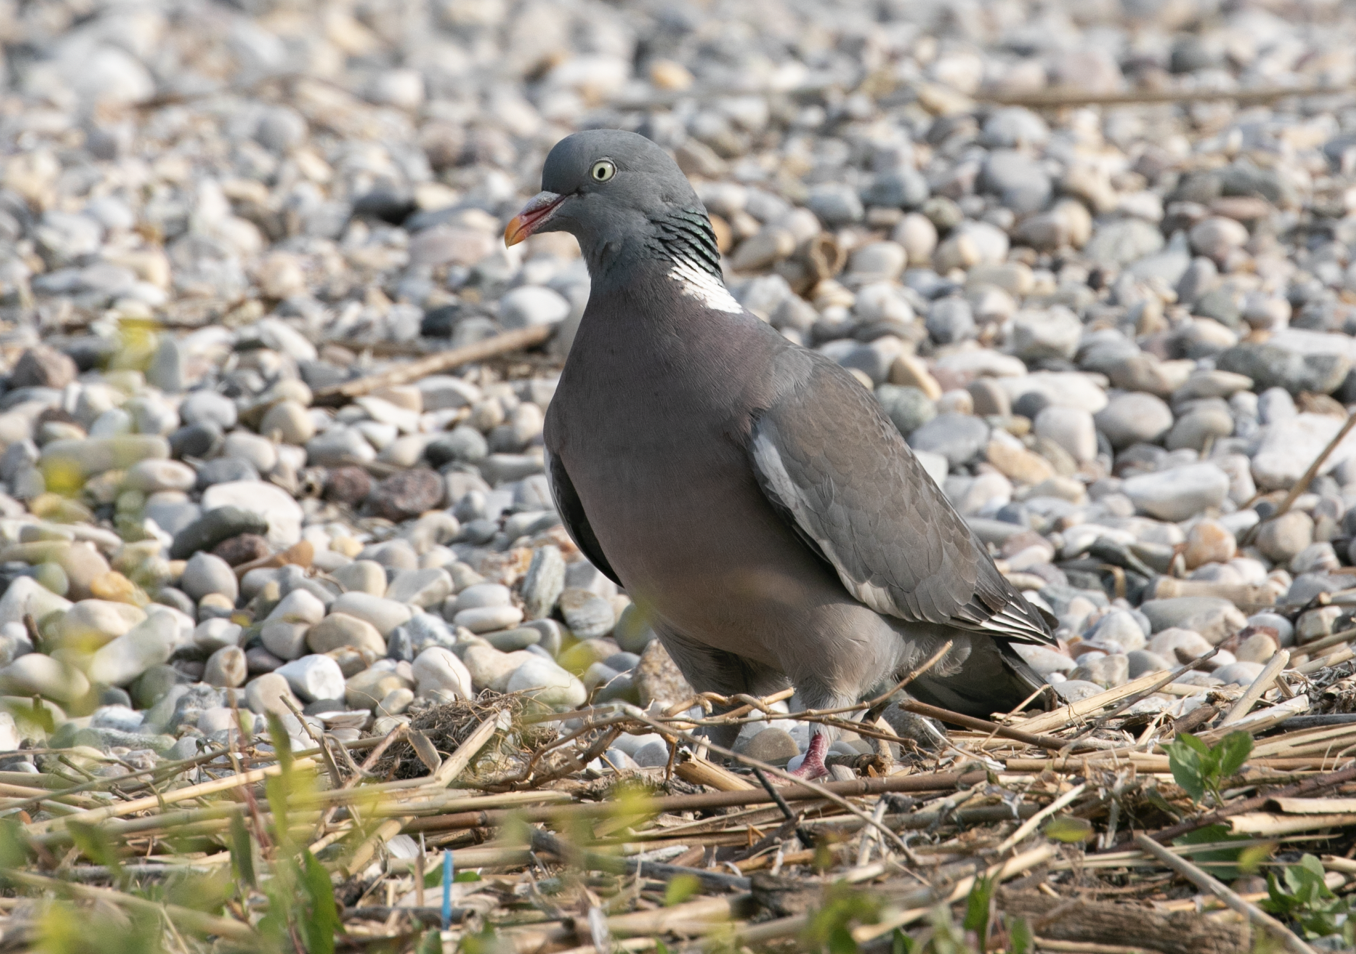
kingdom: Animalia
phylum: Chordata
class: Aves
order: Columbiformes
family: Columbidae
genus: Columba
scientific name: Columba palumbus
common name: Common wood pigeon
